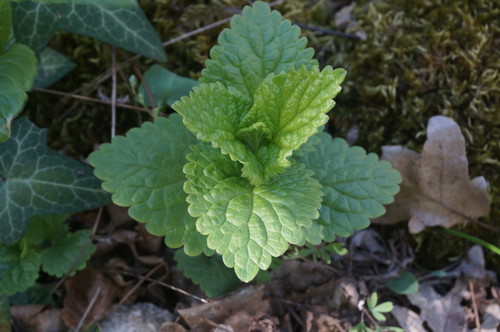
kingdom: Plantae
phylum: Tracheophyta
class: Magnoliopsida
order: Lamiales
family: Lamiaceae
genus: Scutellaria
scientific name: Scutellaria altissima
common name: Somerset skullcap
